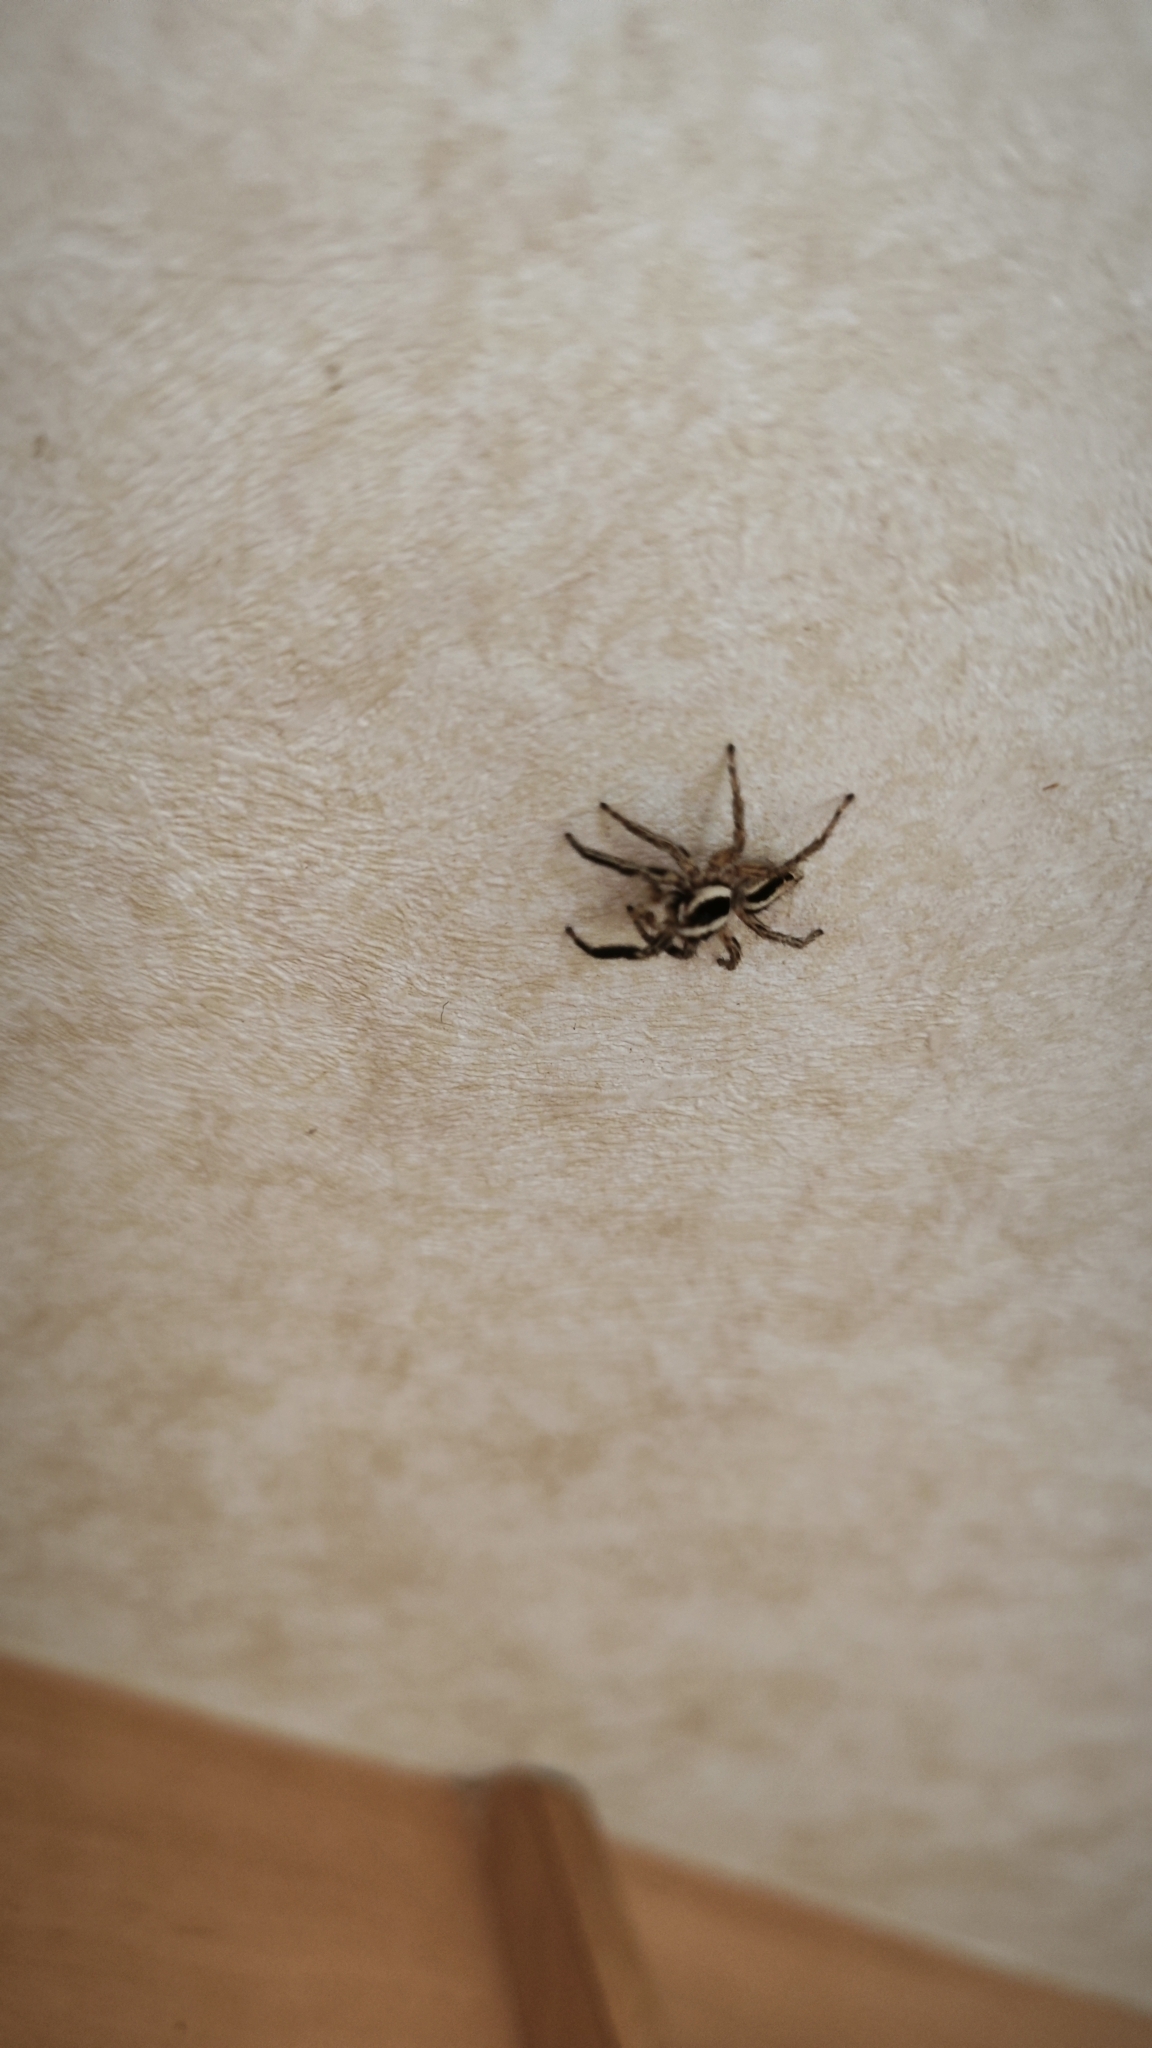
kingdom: Animalia
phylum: Arthropoda
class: Arachnida
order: Araneae
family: Salticidae
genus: Plexippus
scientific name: Plexippus paykulli
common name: Pantropical jumper
